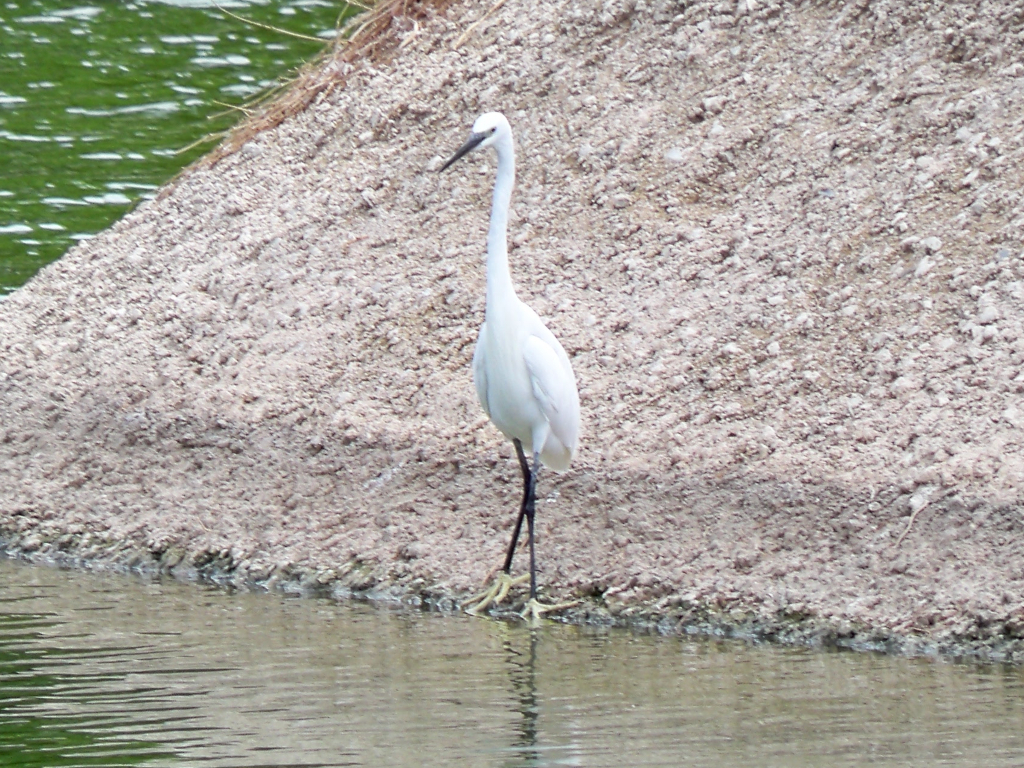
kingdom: Animalia
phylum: Chordata
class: Aves
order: Pelecaniformes
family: Ardeidae
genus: Egretta
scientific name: Egretta garzetta
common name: Little egret
